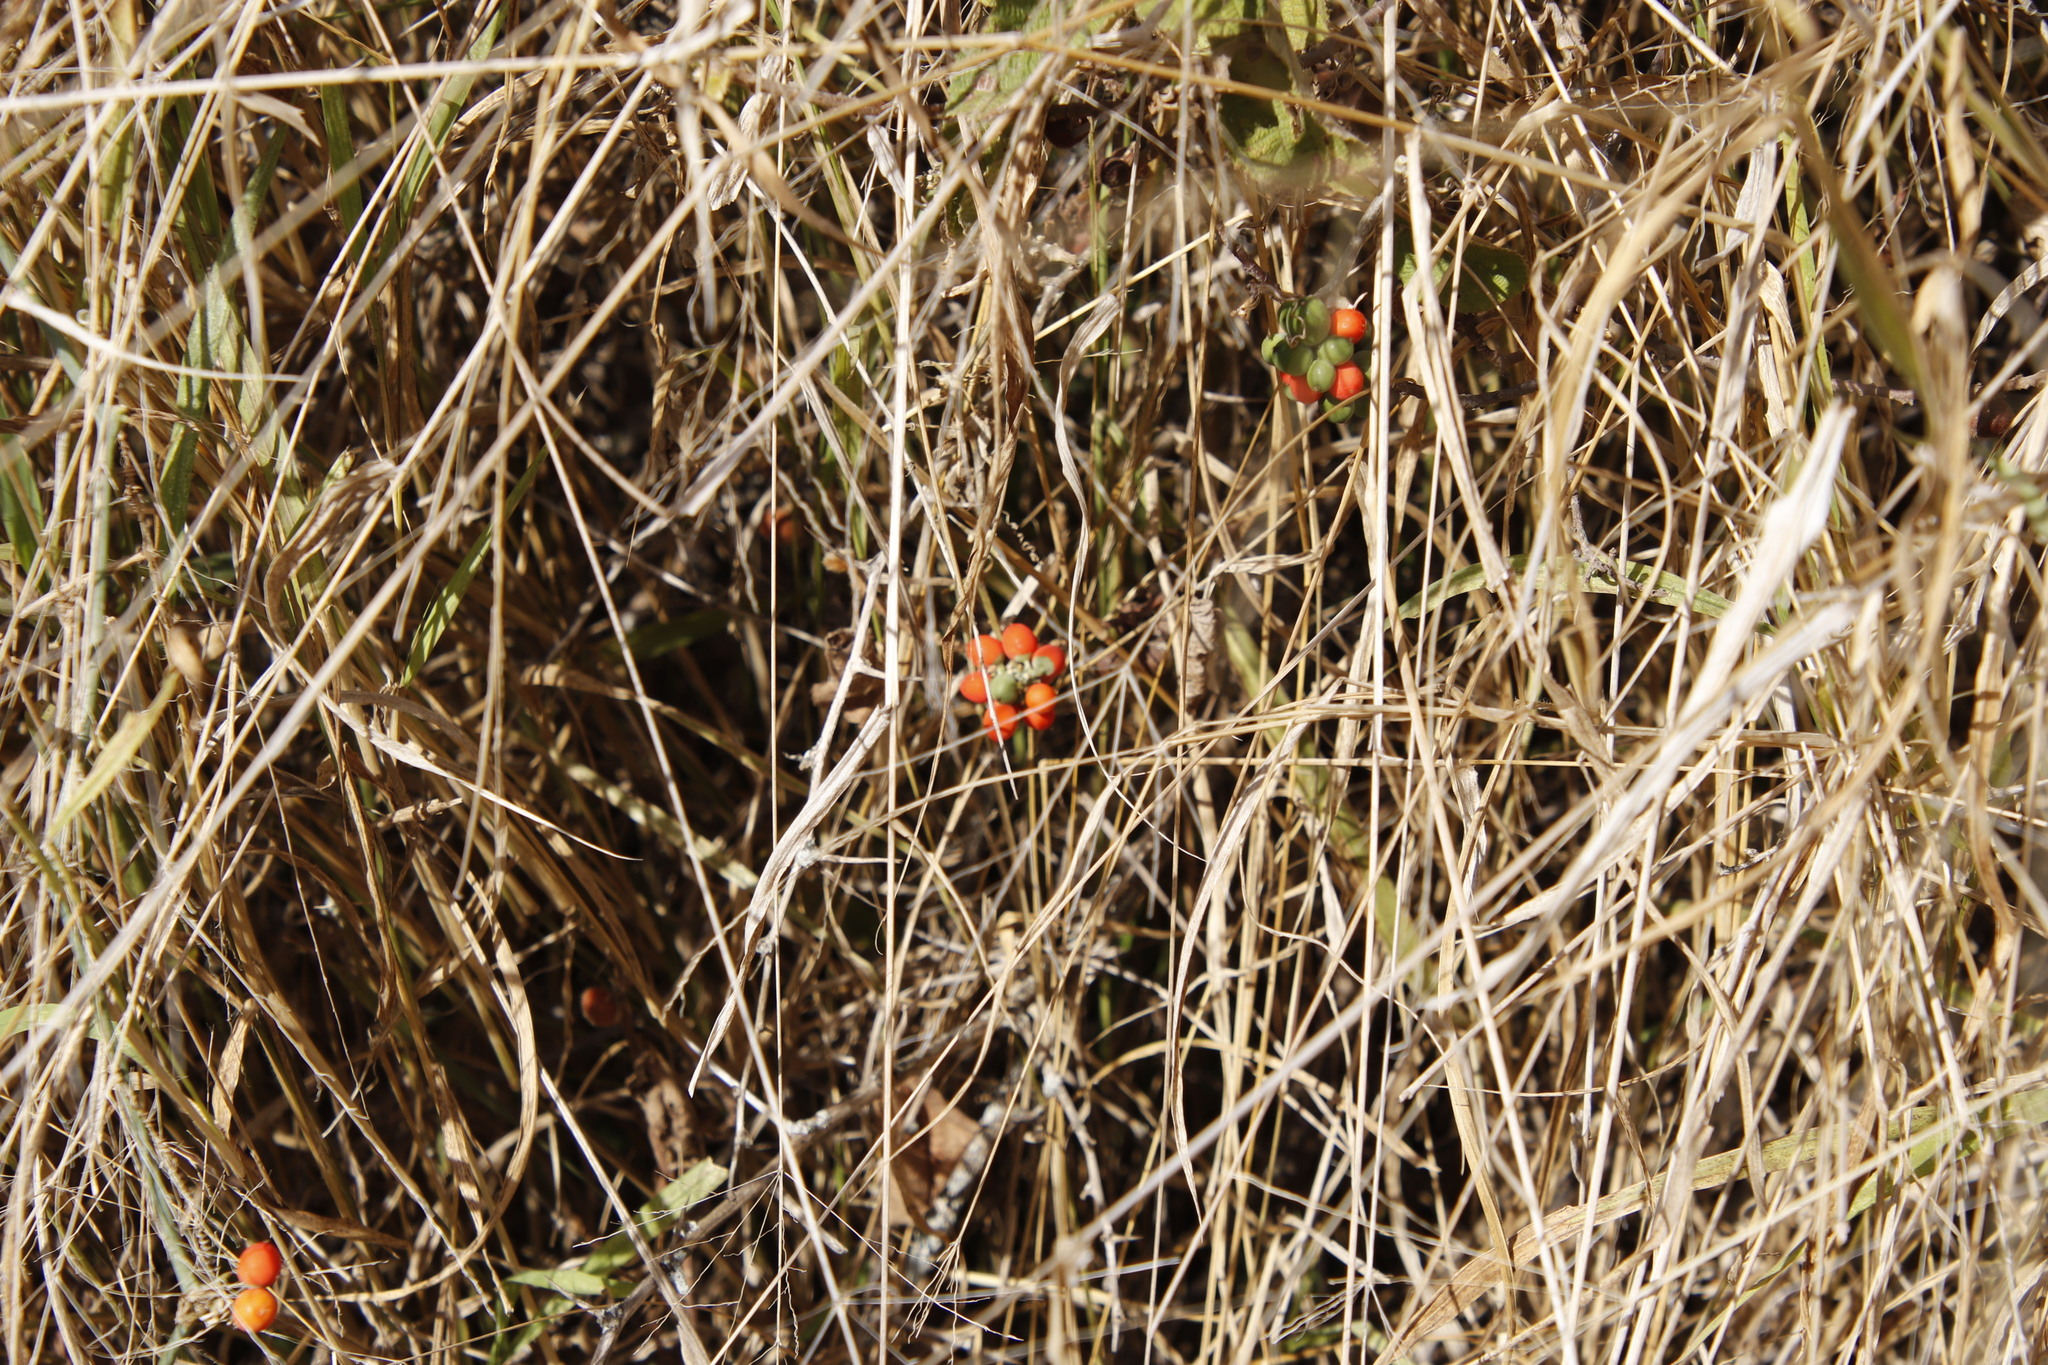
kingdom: Plantae
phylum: Tracheophyta
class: Magnoliopsida
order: Cucurbitales
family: Cucurbitaceae
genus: Corallocarpus
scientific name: Corallocarpus bainesii
